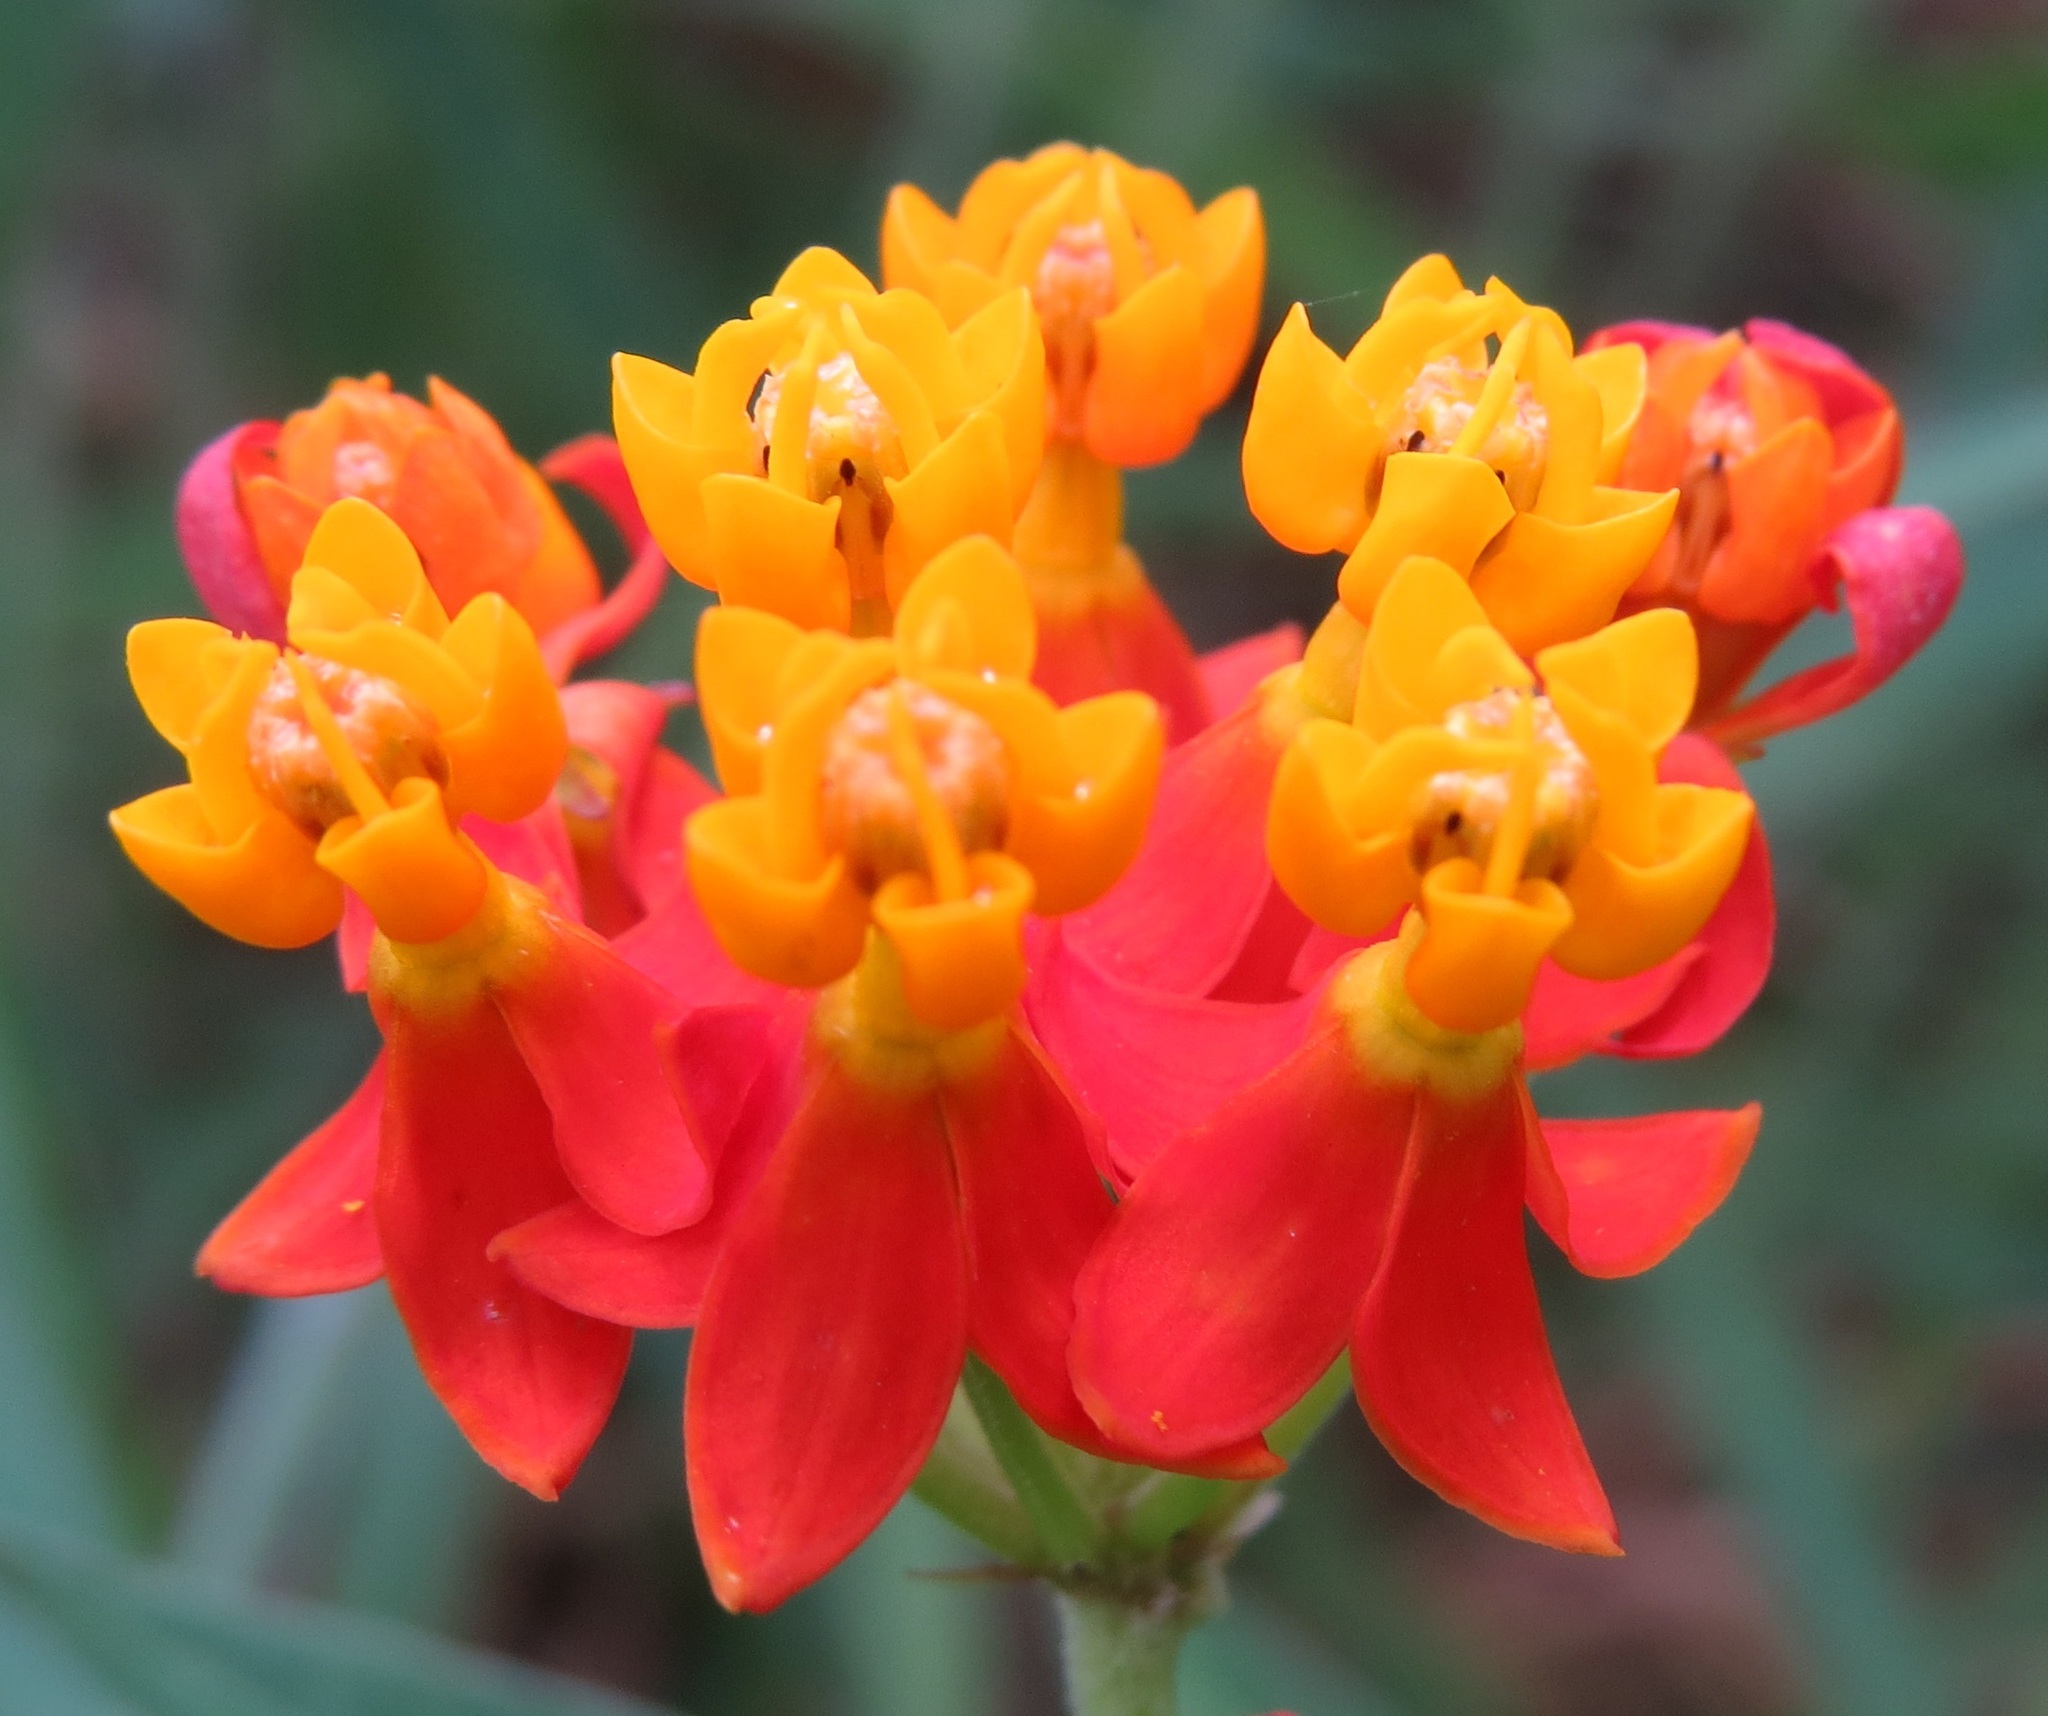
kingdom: Plantae
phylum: Tracheophyta
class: Magnoliopsida
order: Gentianales
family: Apocynaceae
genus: Asclepias
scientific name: Asclepias curassavica
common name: Bloodflower
